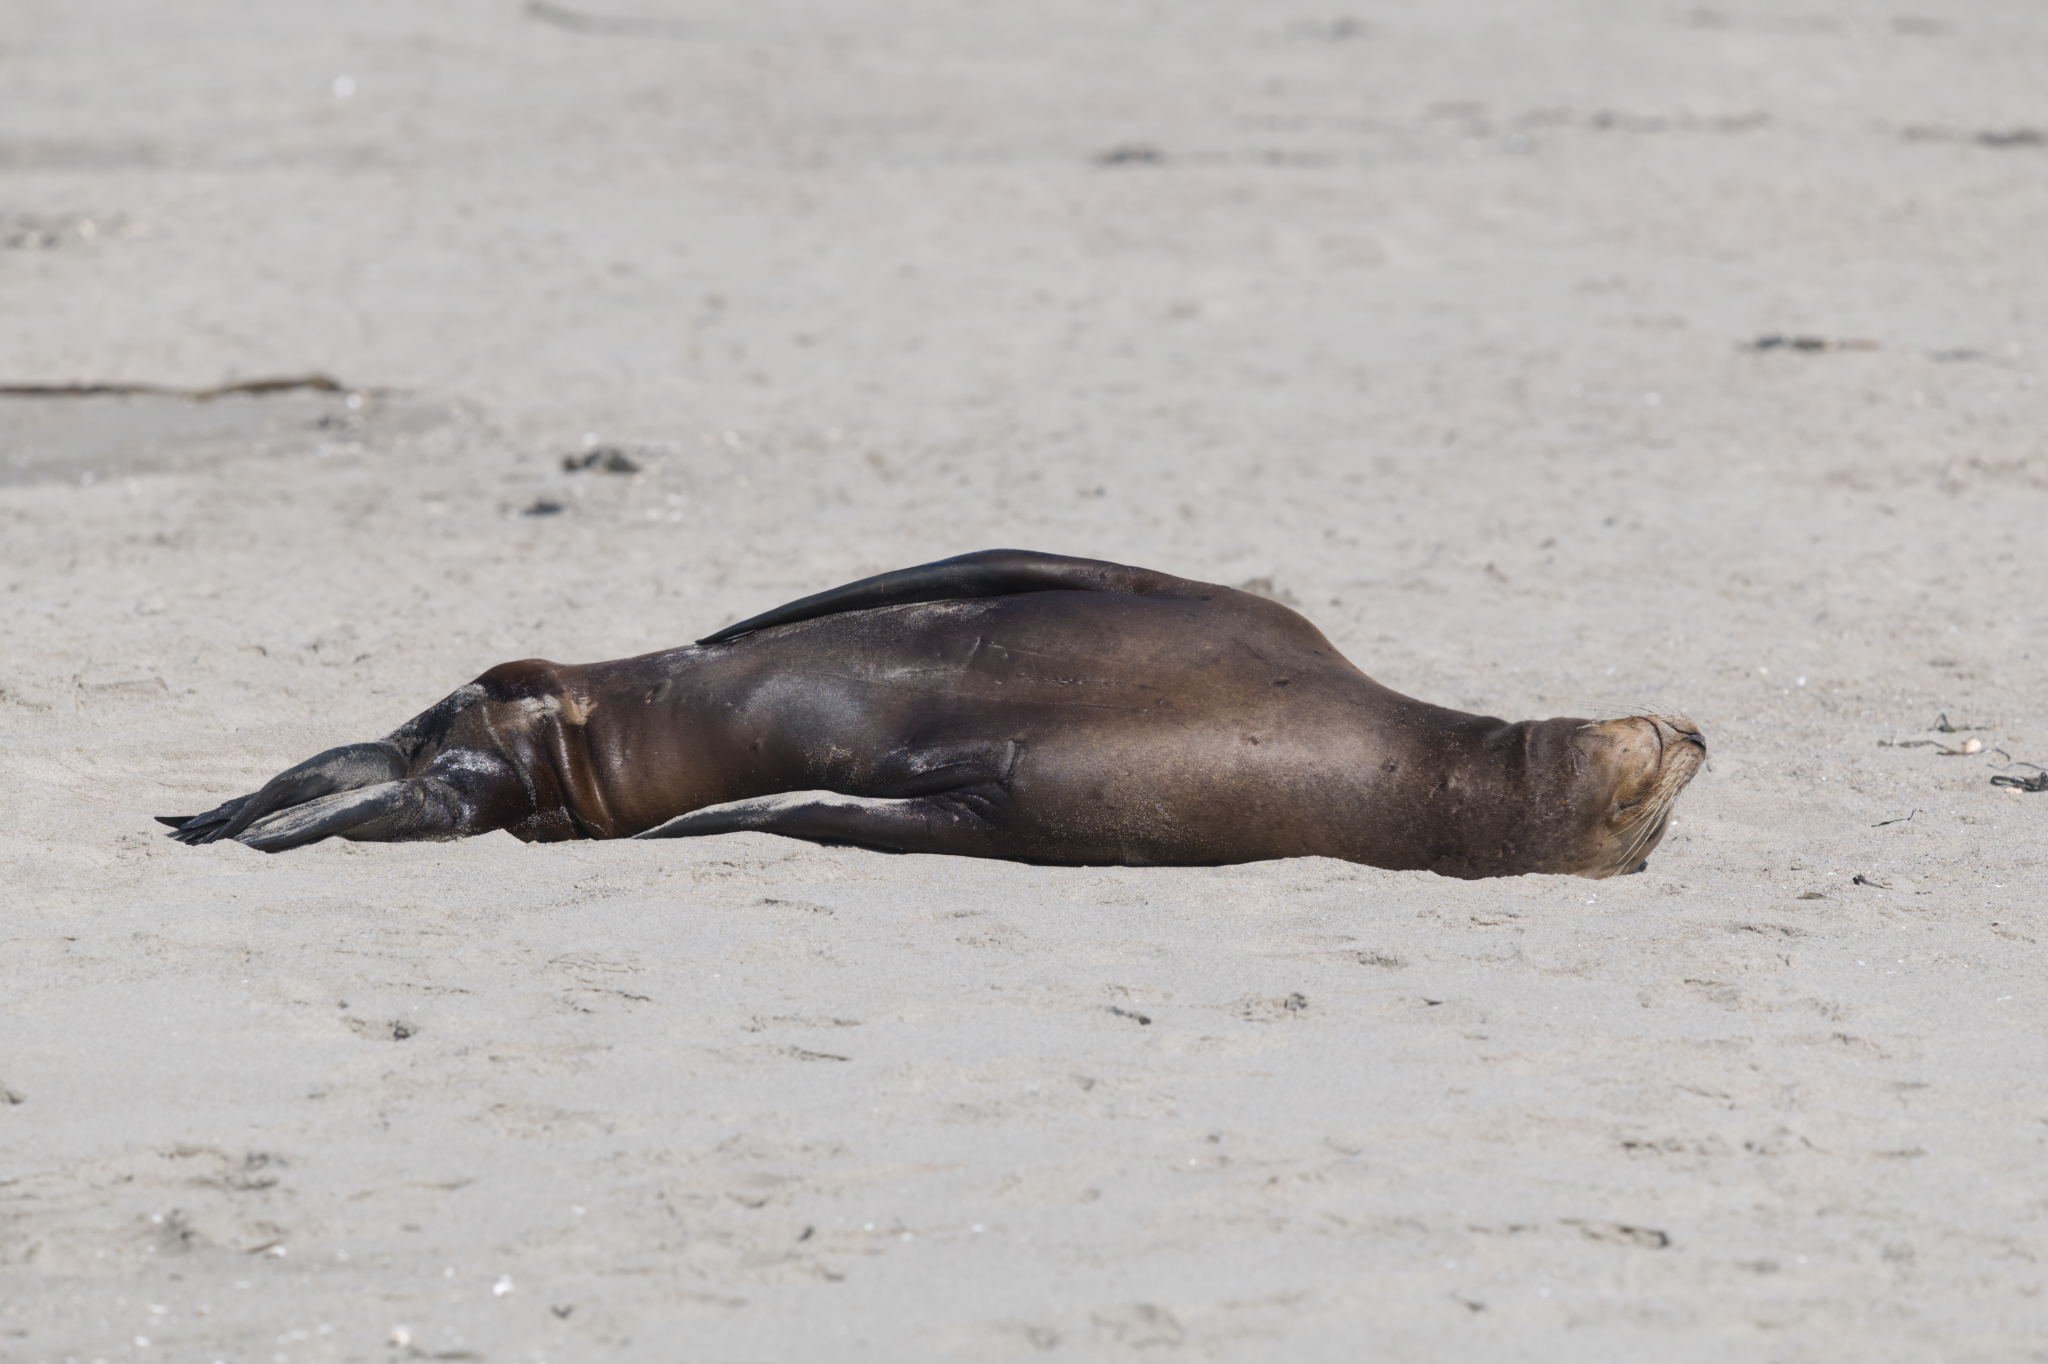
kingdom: Animalia
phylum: Chordata
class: Mammalia
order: Carnivora
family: Otariidae
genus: Zalophus
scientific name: Zalophus californianus
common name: California sea lion
